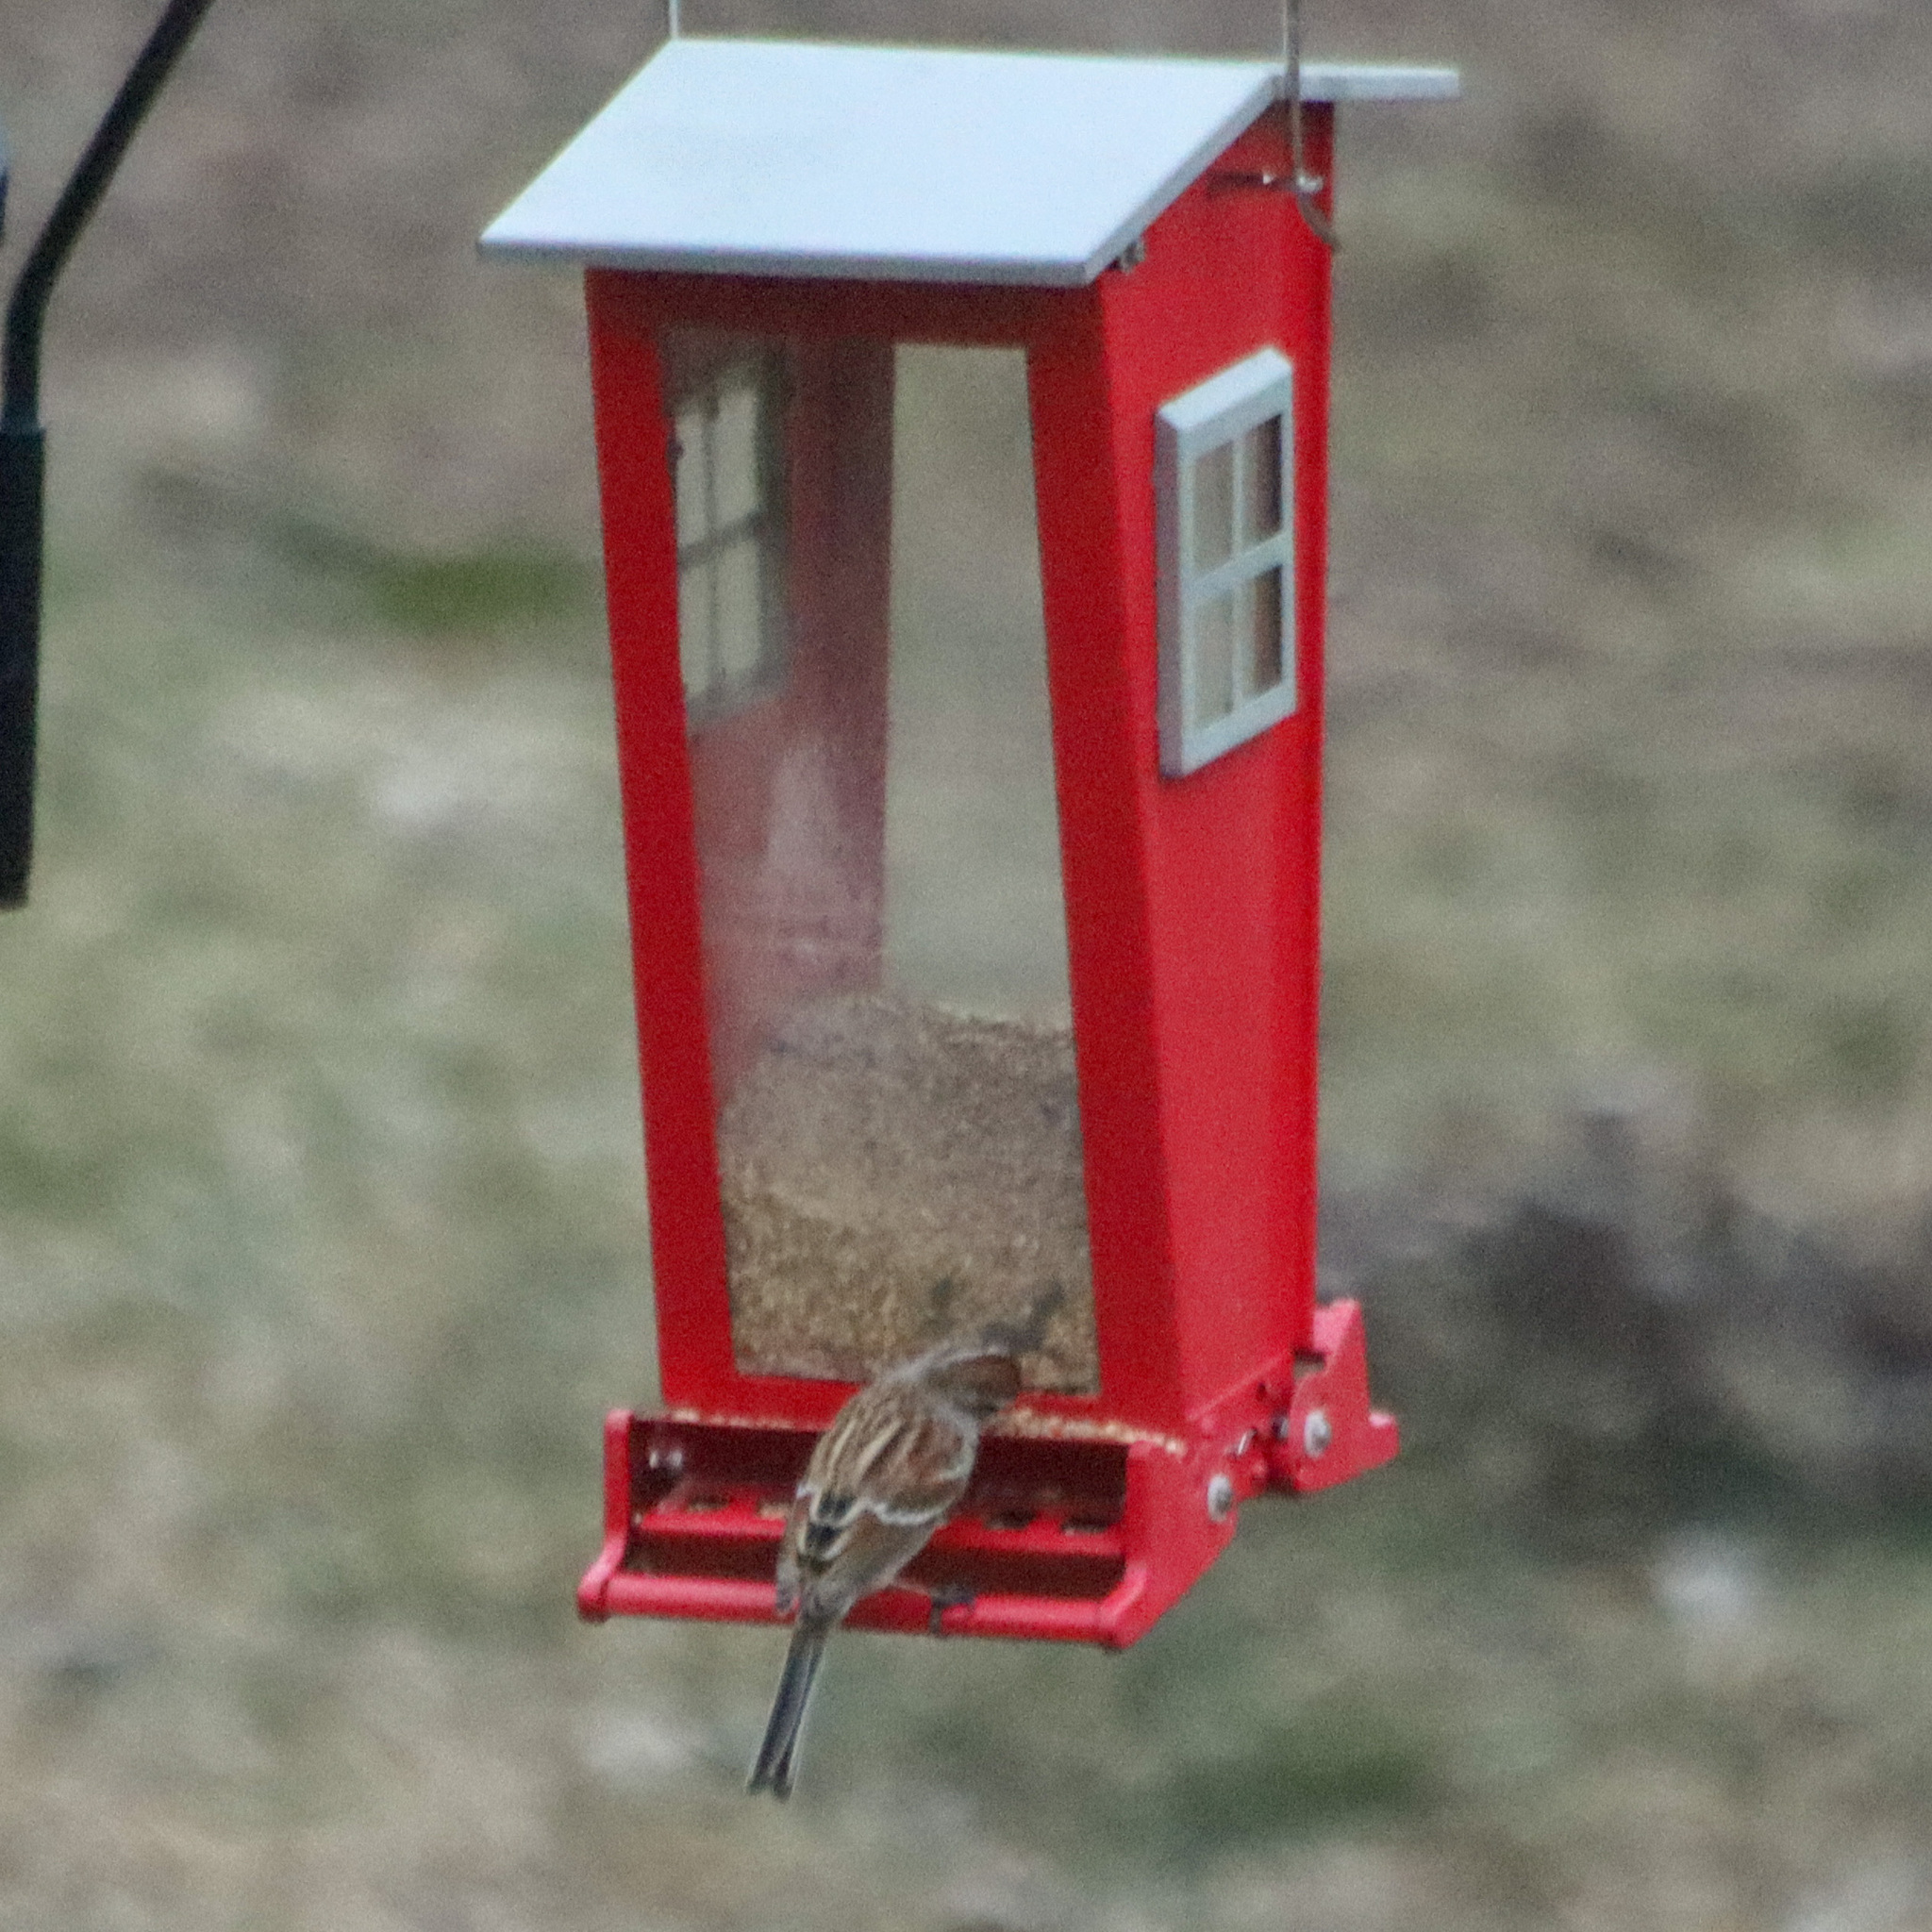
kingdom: Animalia
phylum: Chordata
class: Aves
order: Passeriformes
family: Passerellidae
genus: Melospiza
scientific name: Melospiza melodia
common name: Song sparrow
